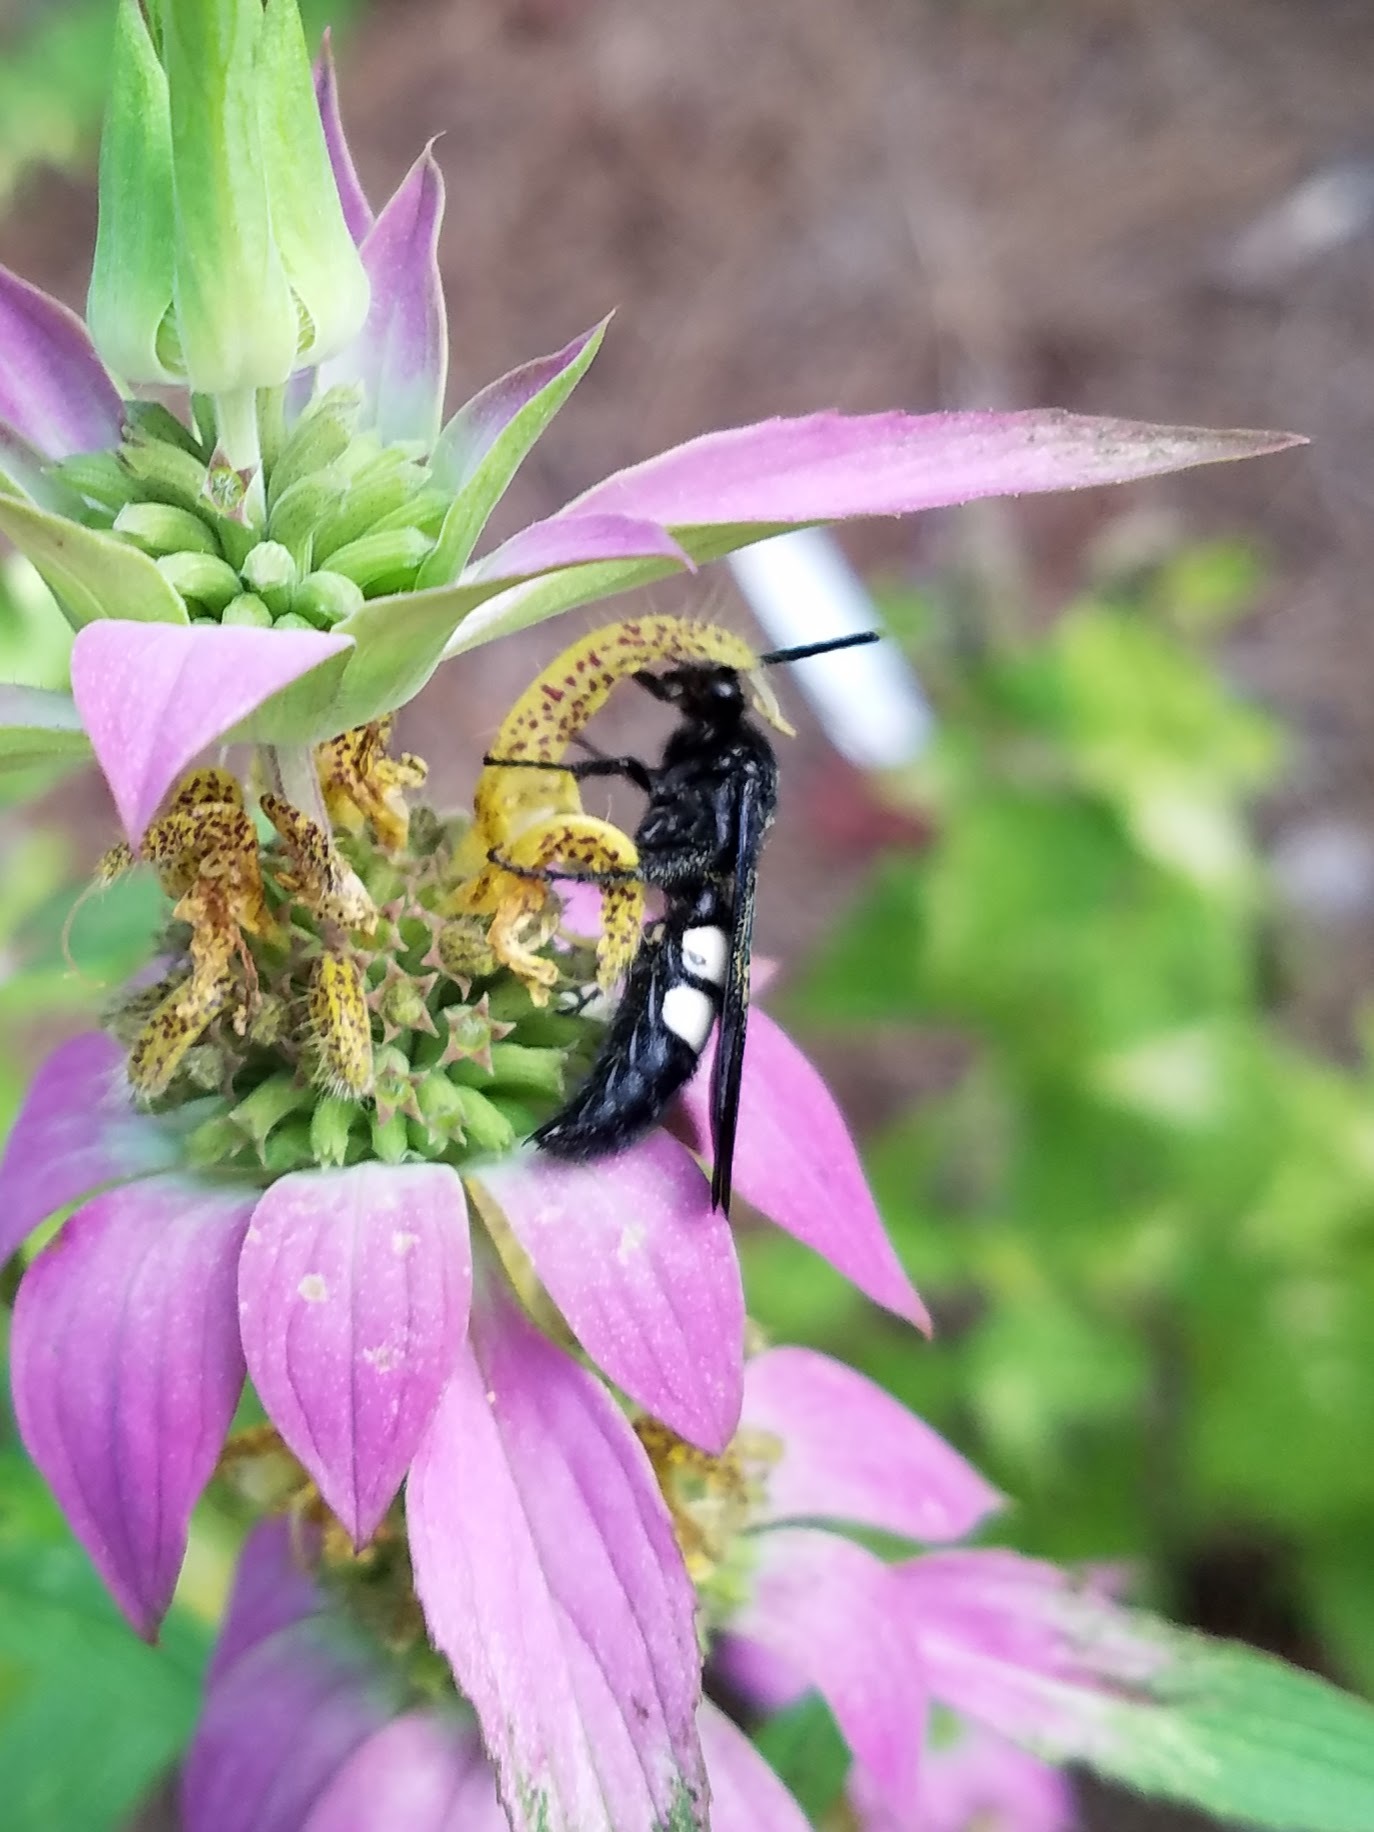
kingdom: Animalia
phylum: Arthropoda
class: Insecta
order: Hymenoptera
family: Scoliidae
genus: Scolia
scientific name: Scolia bicincta
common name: Double-banded scoliid wasp
